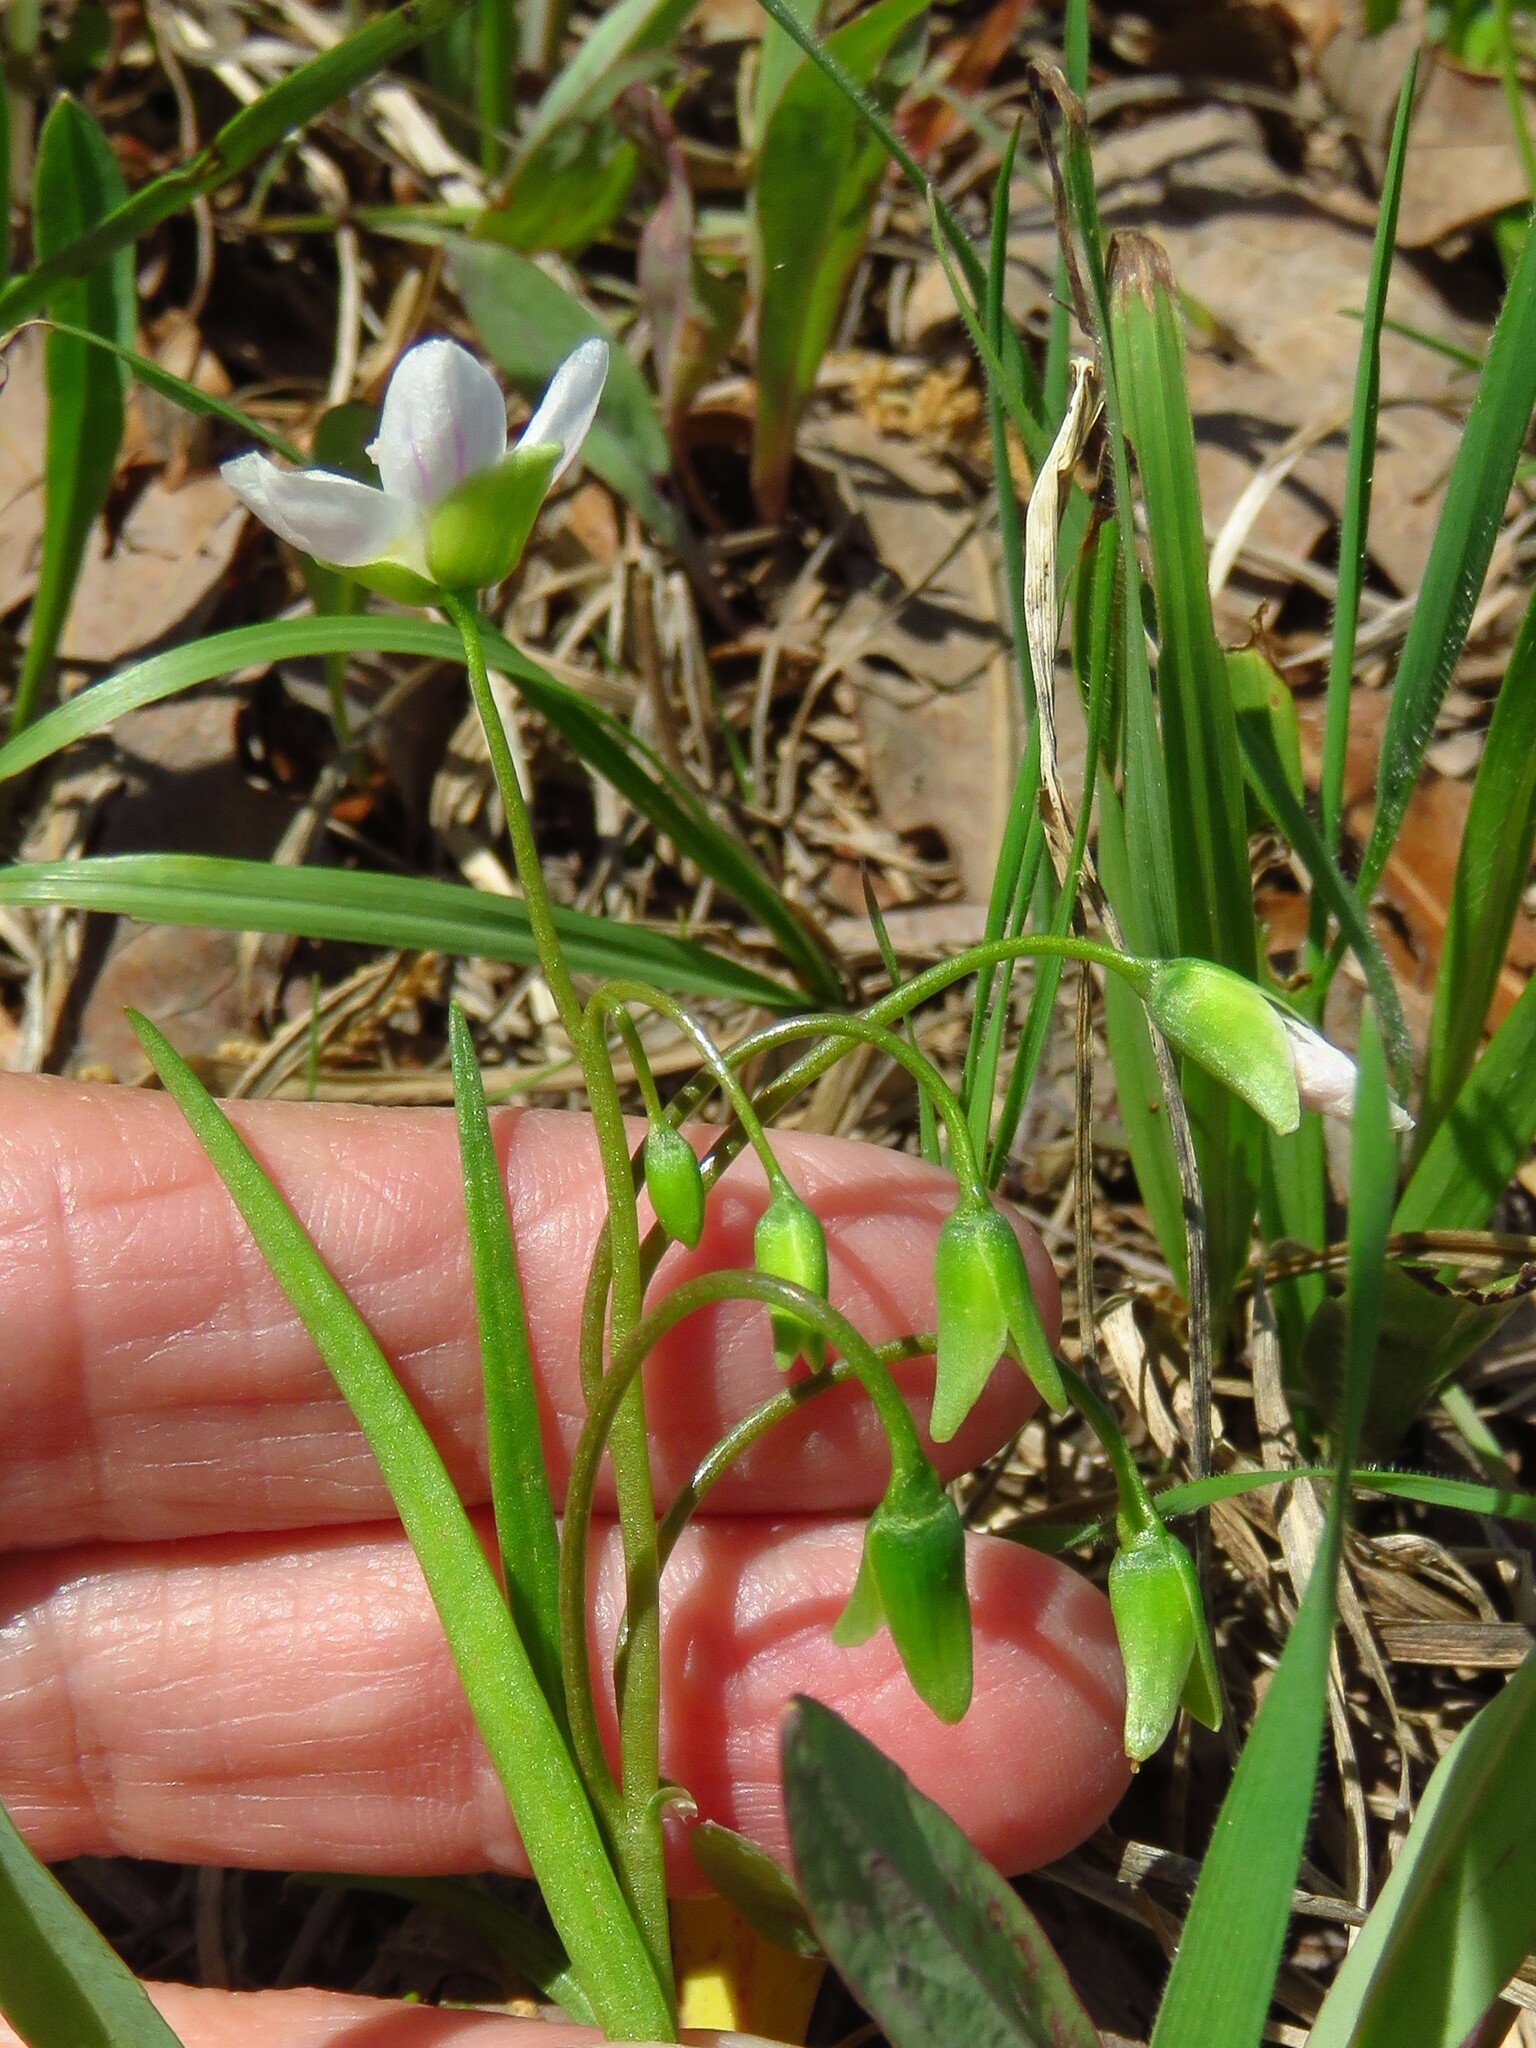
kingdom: Plantae
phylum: Tracheophyta
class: Magnoliopsida
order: Caryophyllales
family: Montiaceae
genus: Claytonia
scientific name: Claytonia virginica
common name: Virginia springbeauty
